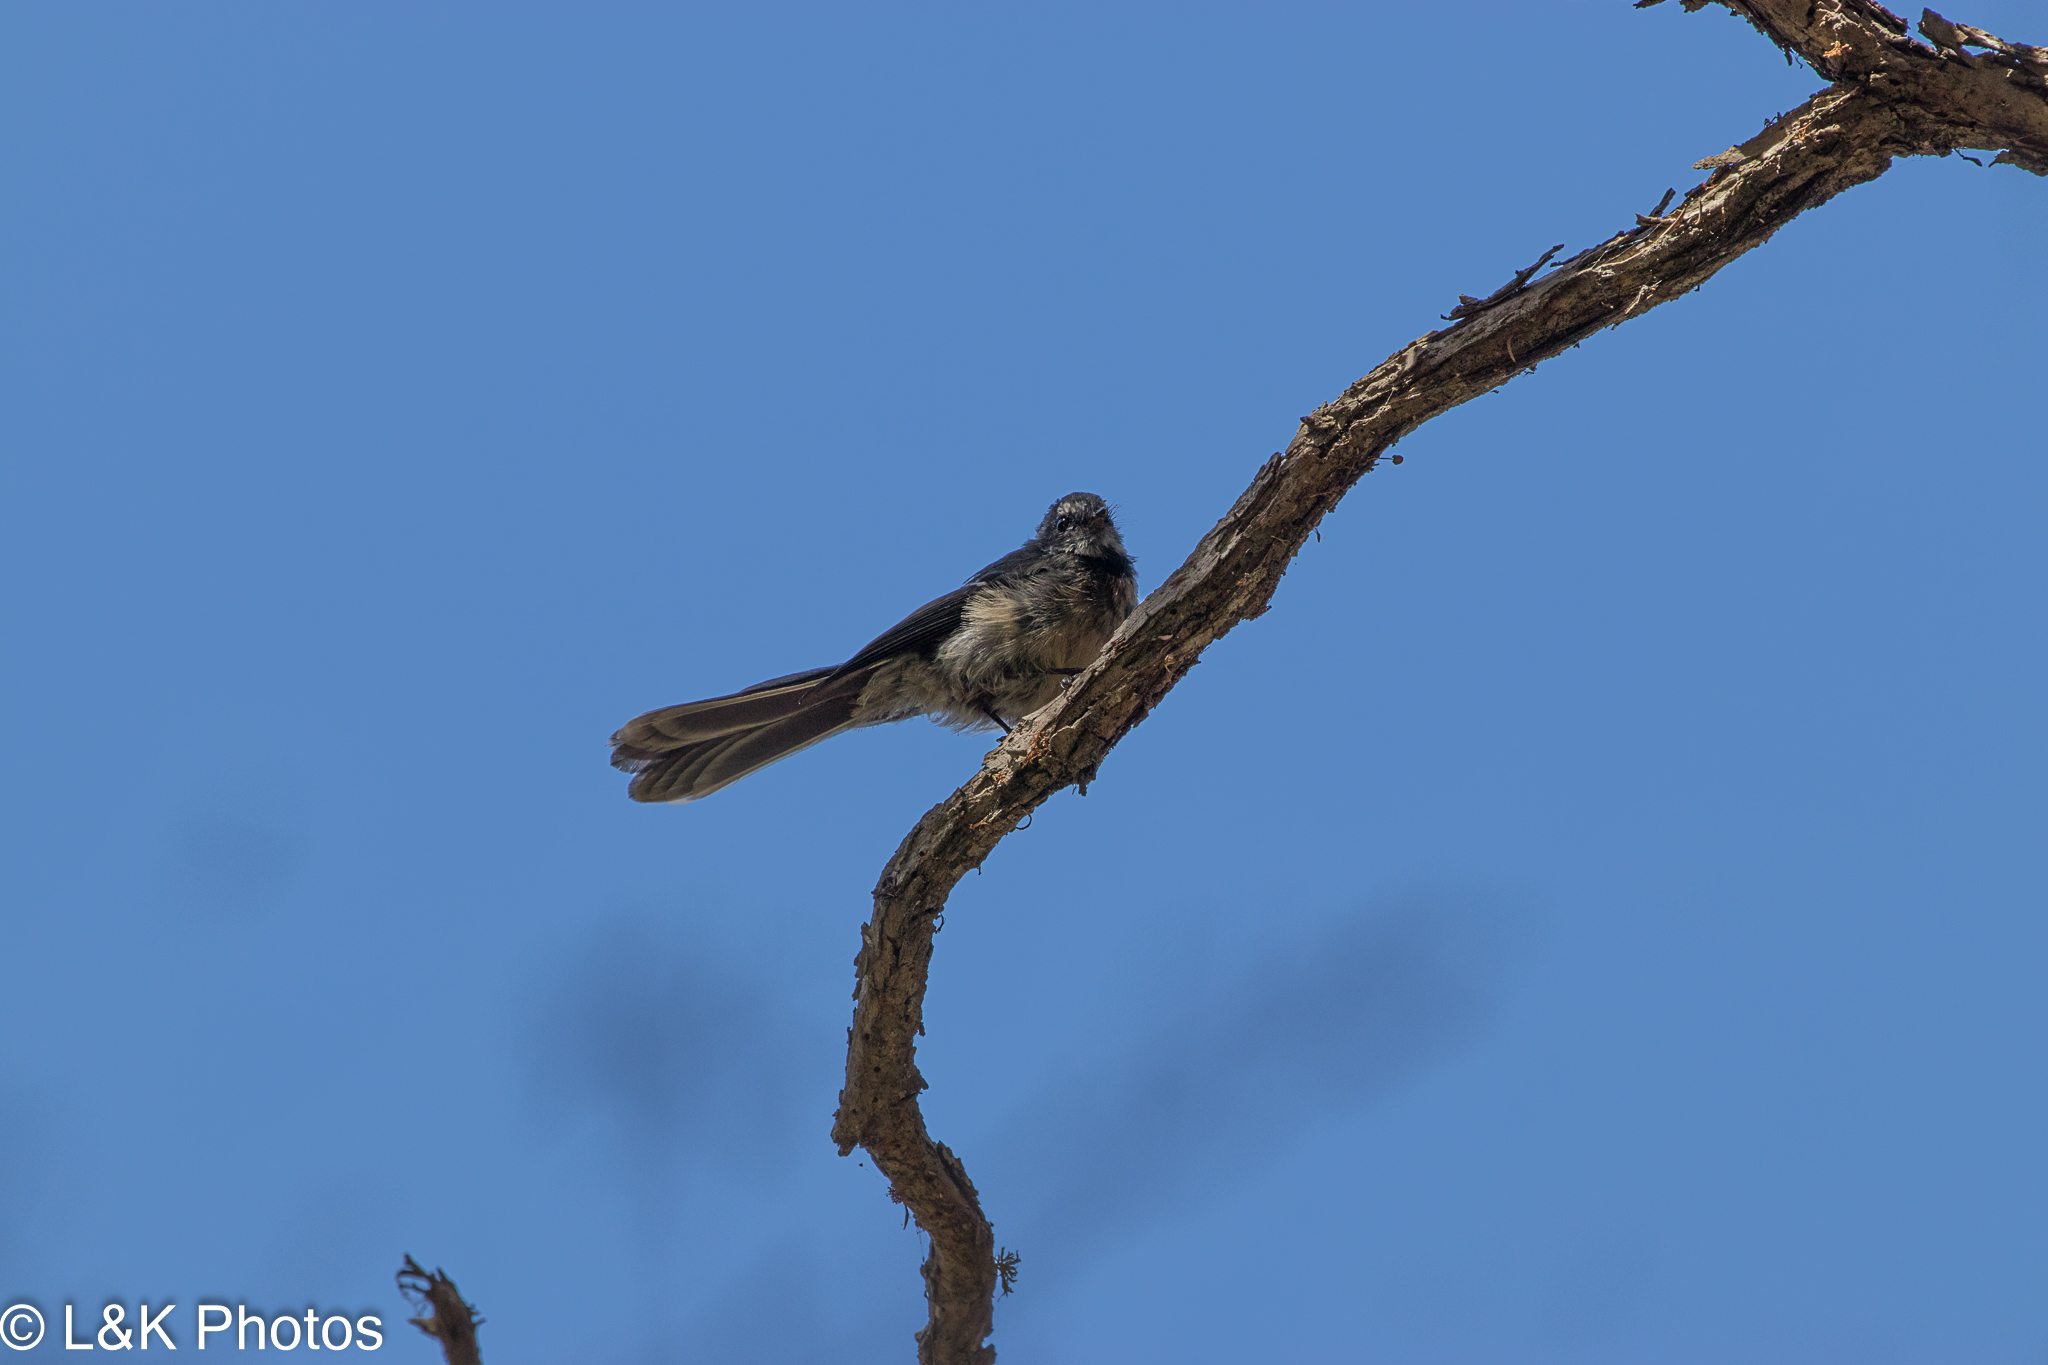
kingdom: Animalia
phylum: Chordata
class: Aves
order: Passeriformes
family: Rhipiduridae
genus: Rhipidura
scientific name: Rhipidura albiscapa
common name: Grey fantail
